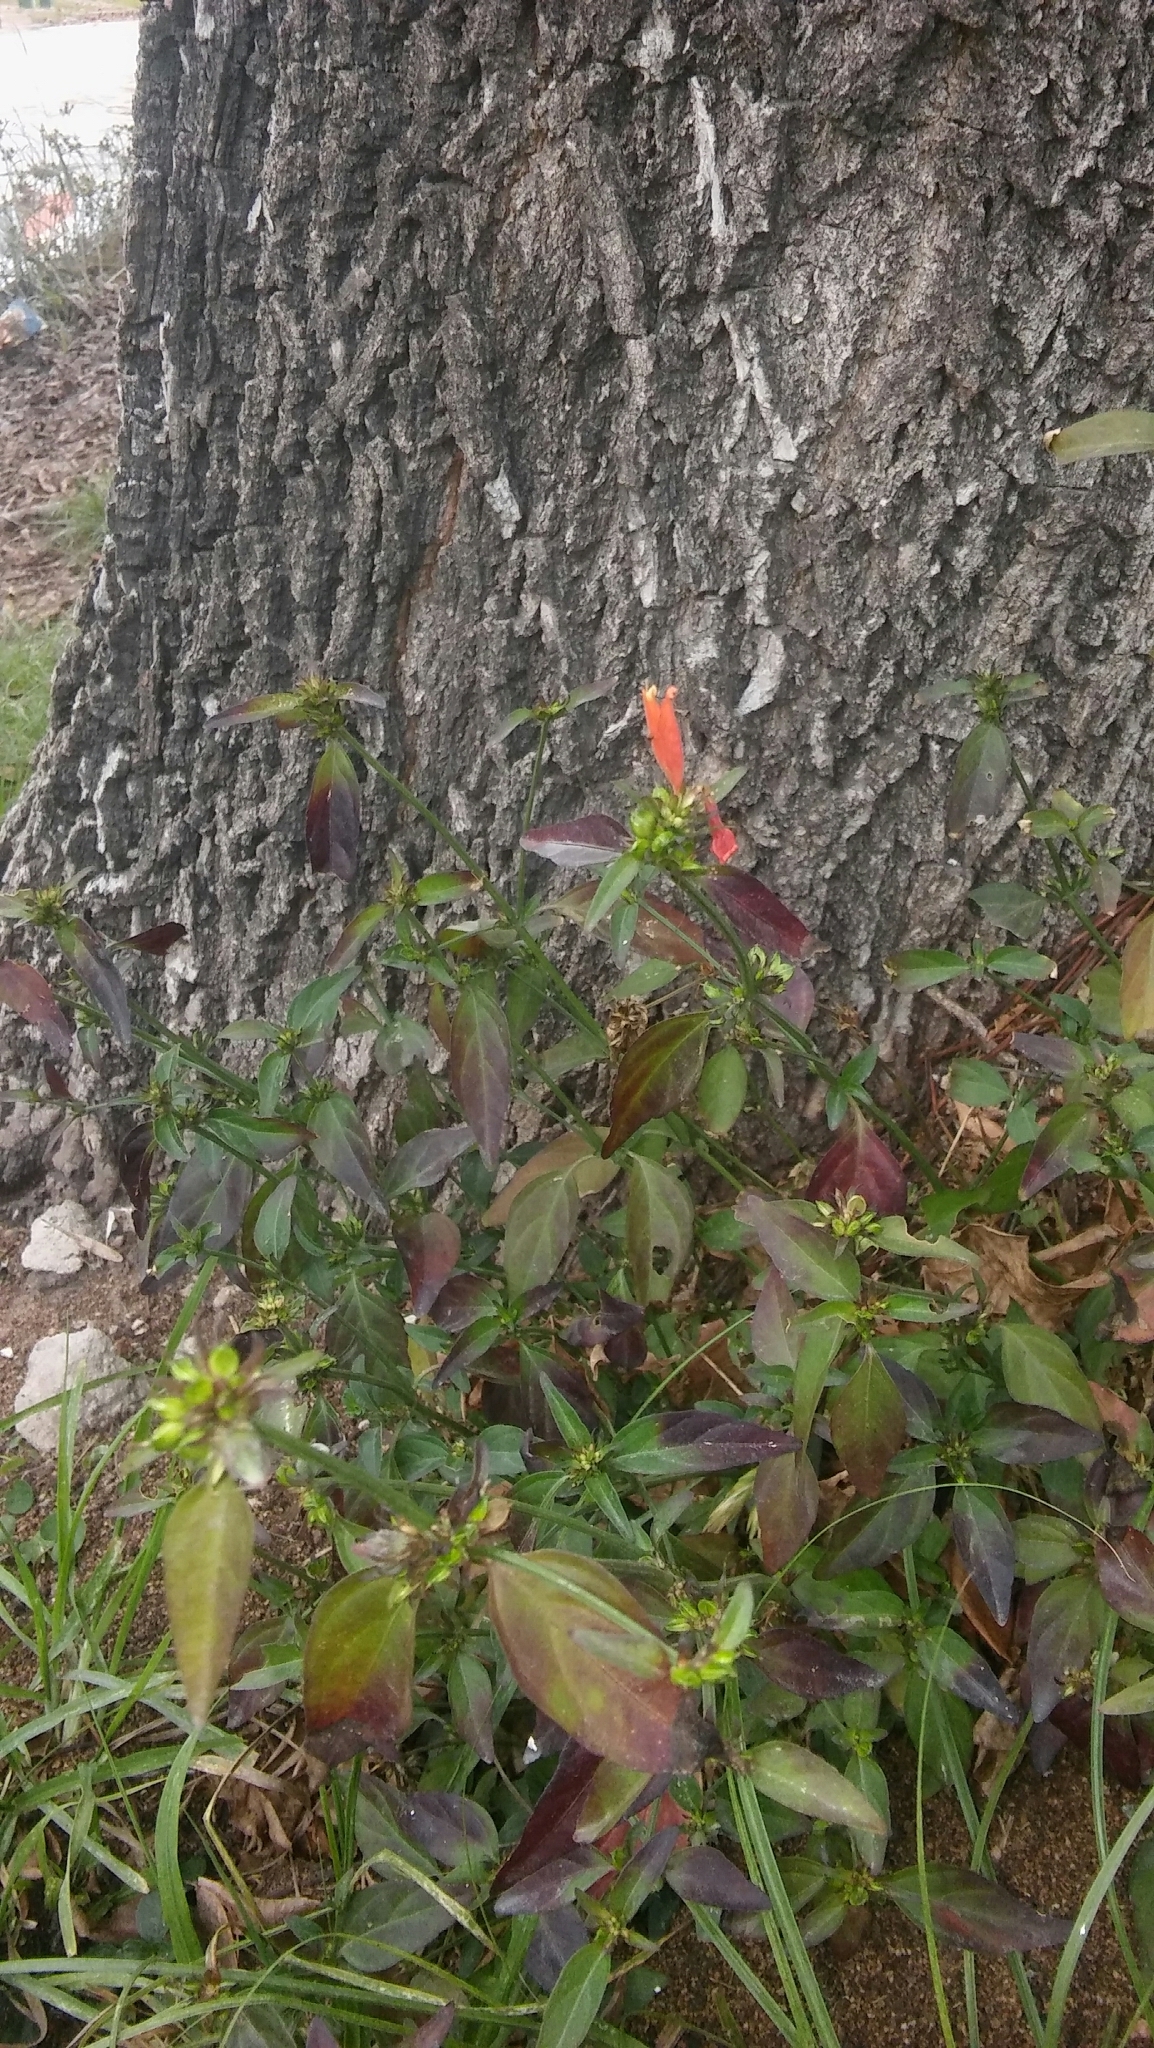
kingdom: Plantae
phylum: Tracheophyta
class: Magnoliopsida
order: Lamiales
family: Acanthaceae
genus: Dicliptera
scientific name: Dicliptera squarrosa
